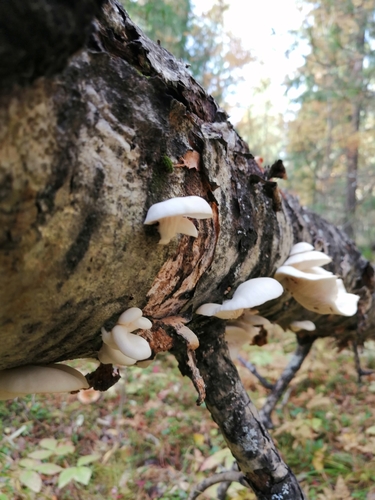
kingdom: Fungi
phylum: Basidiomycota
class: Agaricomycetes
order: Agaricales
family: Pleurotaceae
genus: Pleurotus
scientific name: Pleurotus pulmonarius
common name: Pale oyster
